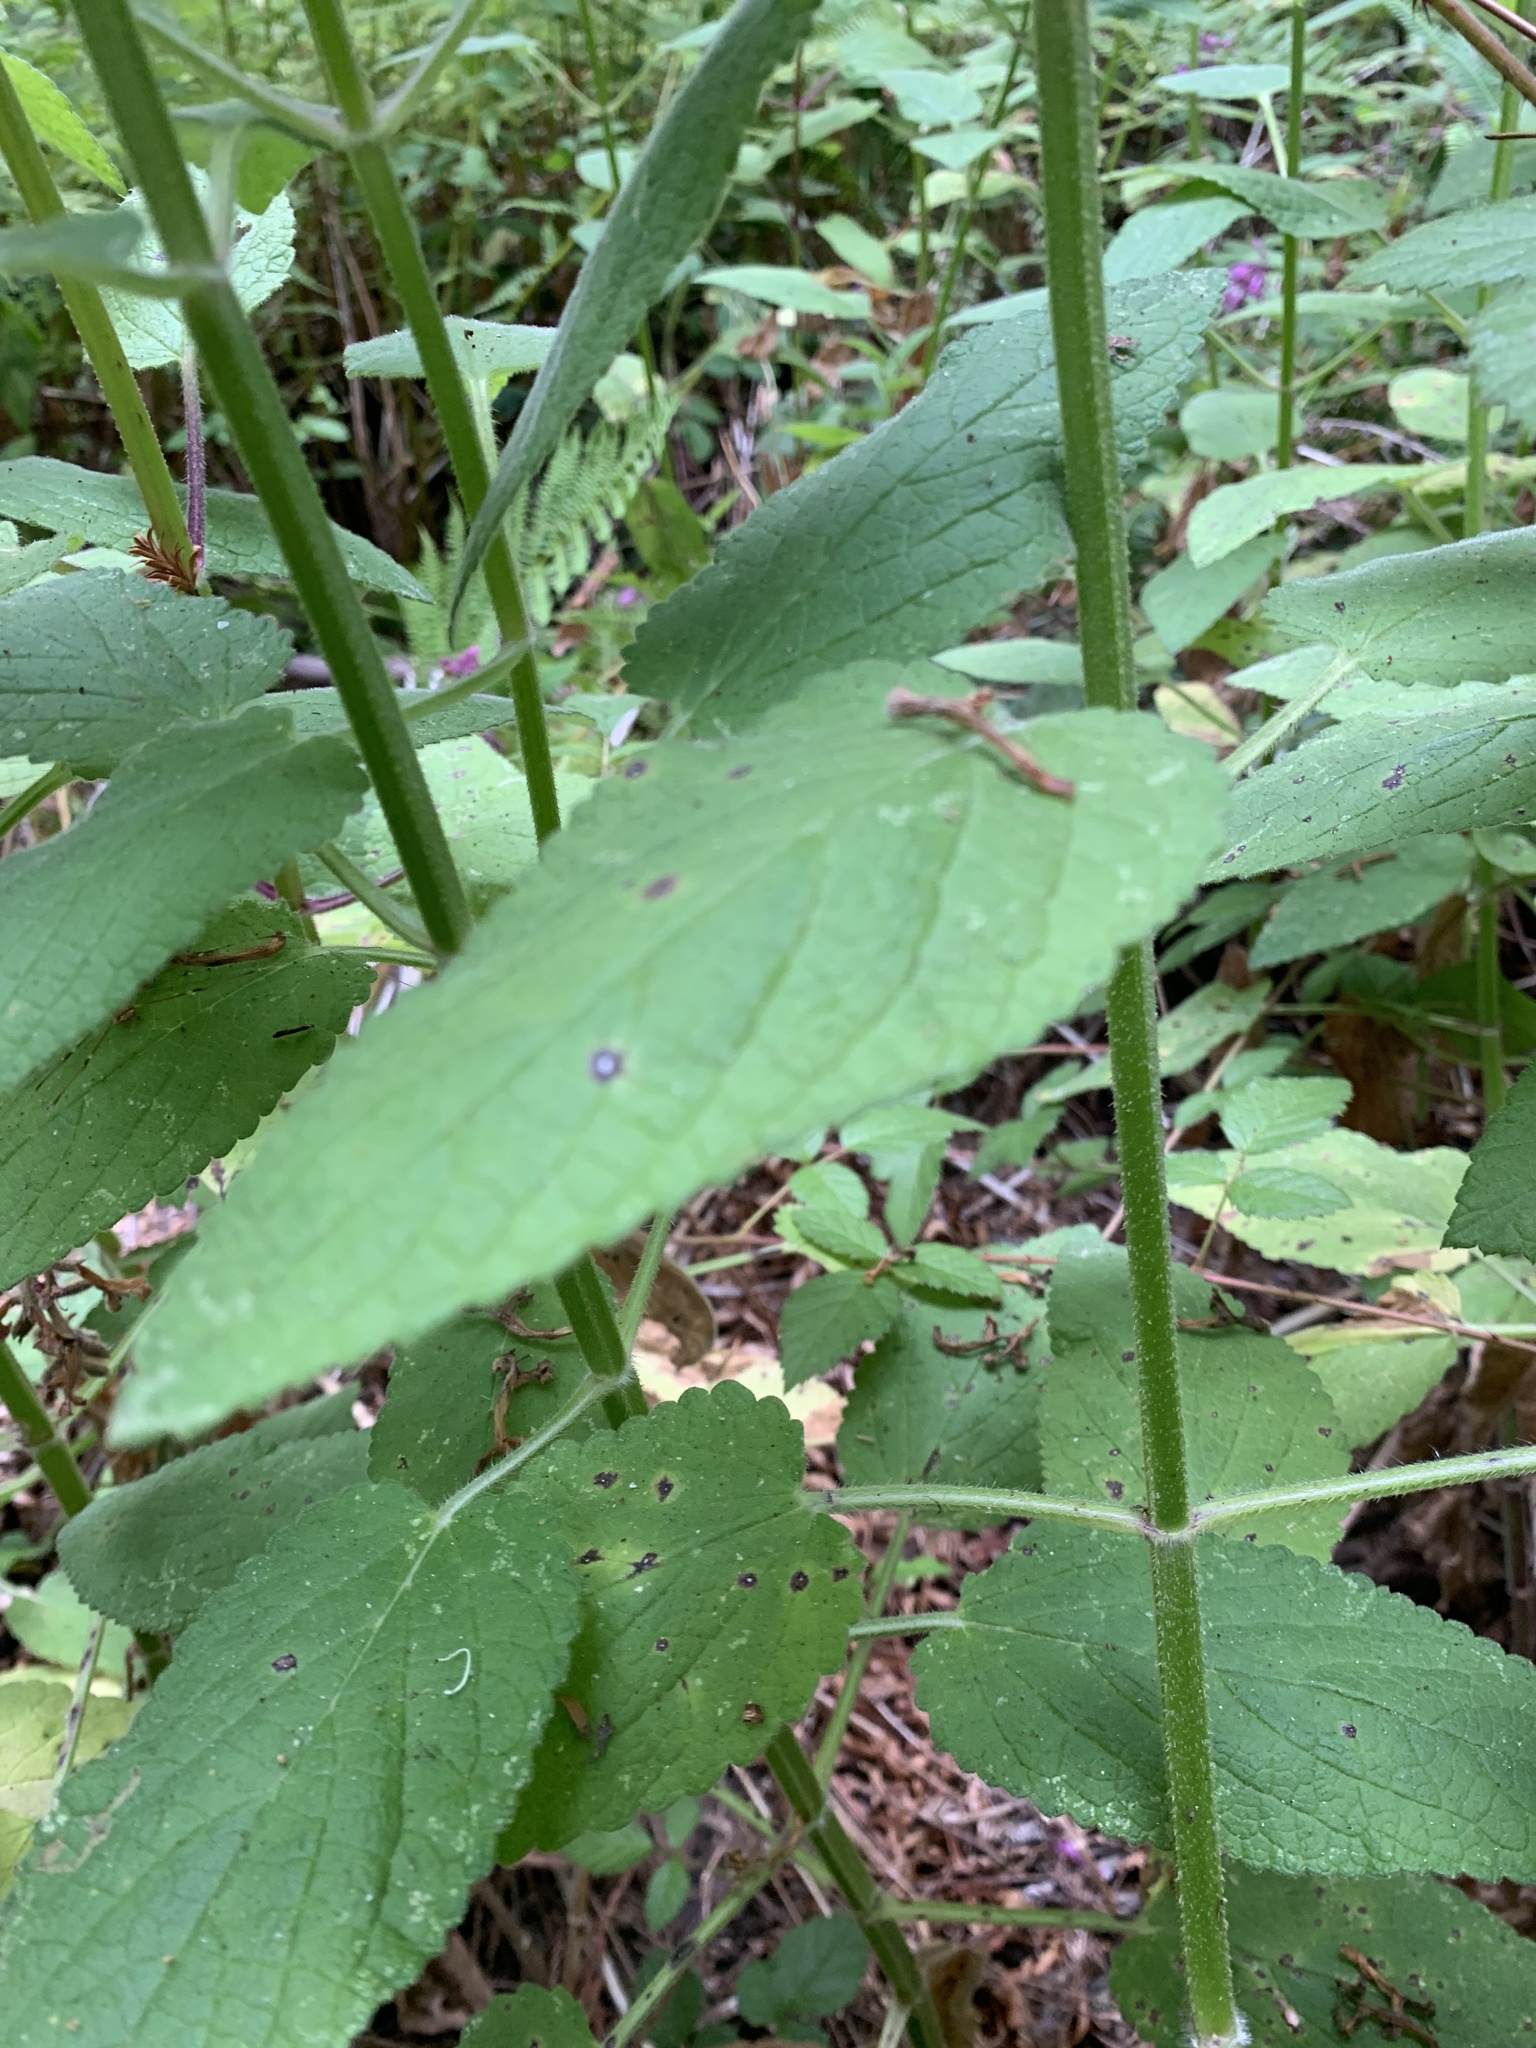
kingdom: Plantae
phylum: Tracheophyta
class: Magnoliopsida
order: Lamiales
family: Lamiaceae
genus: Stachys
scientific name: Stachys chamissonis
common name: Coastal hedge-nettle
